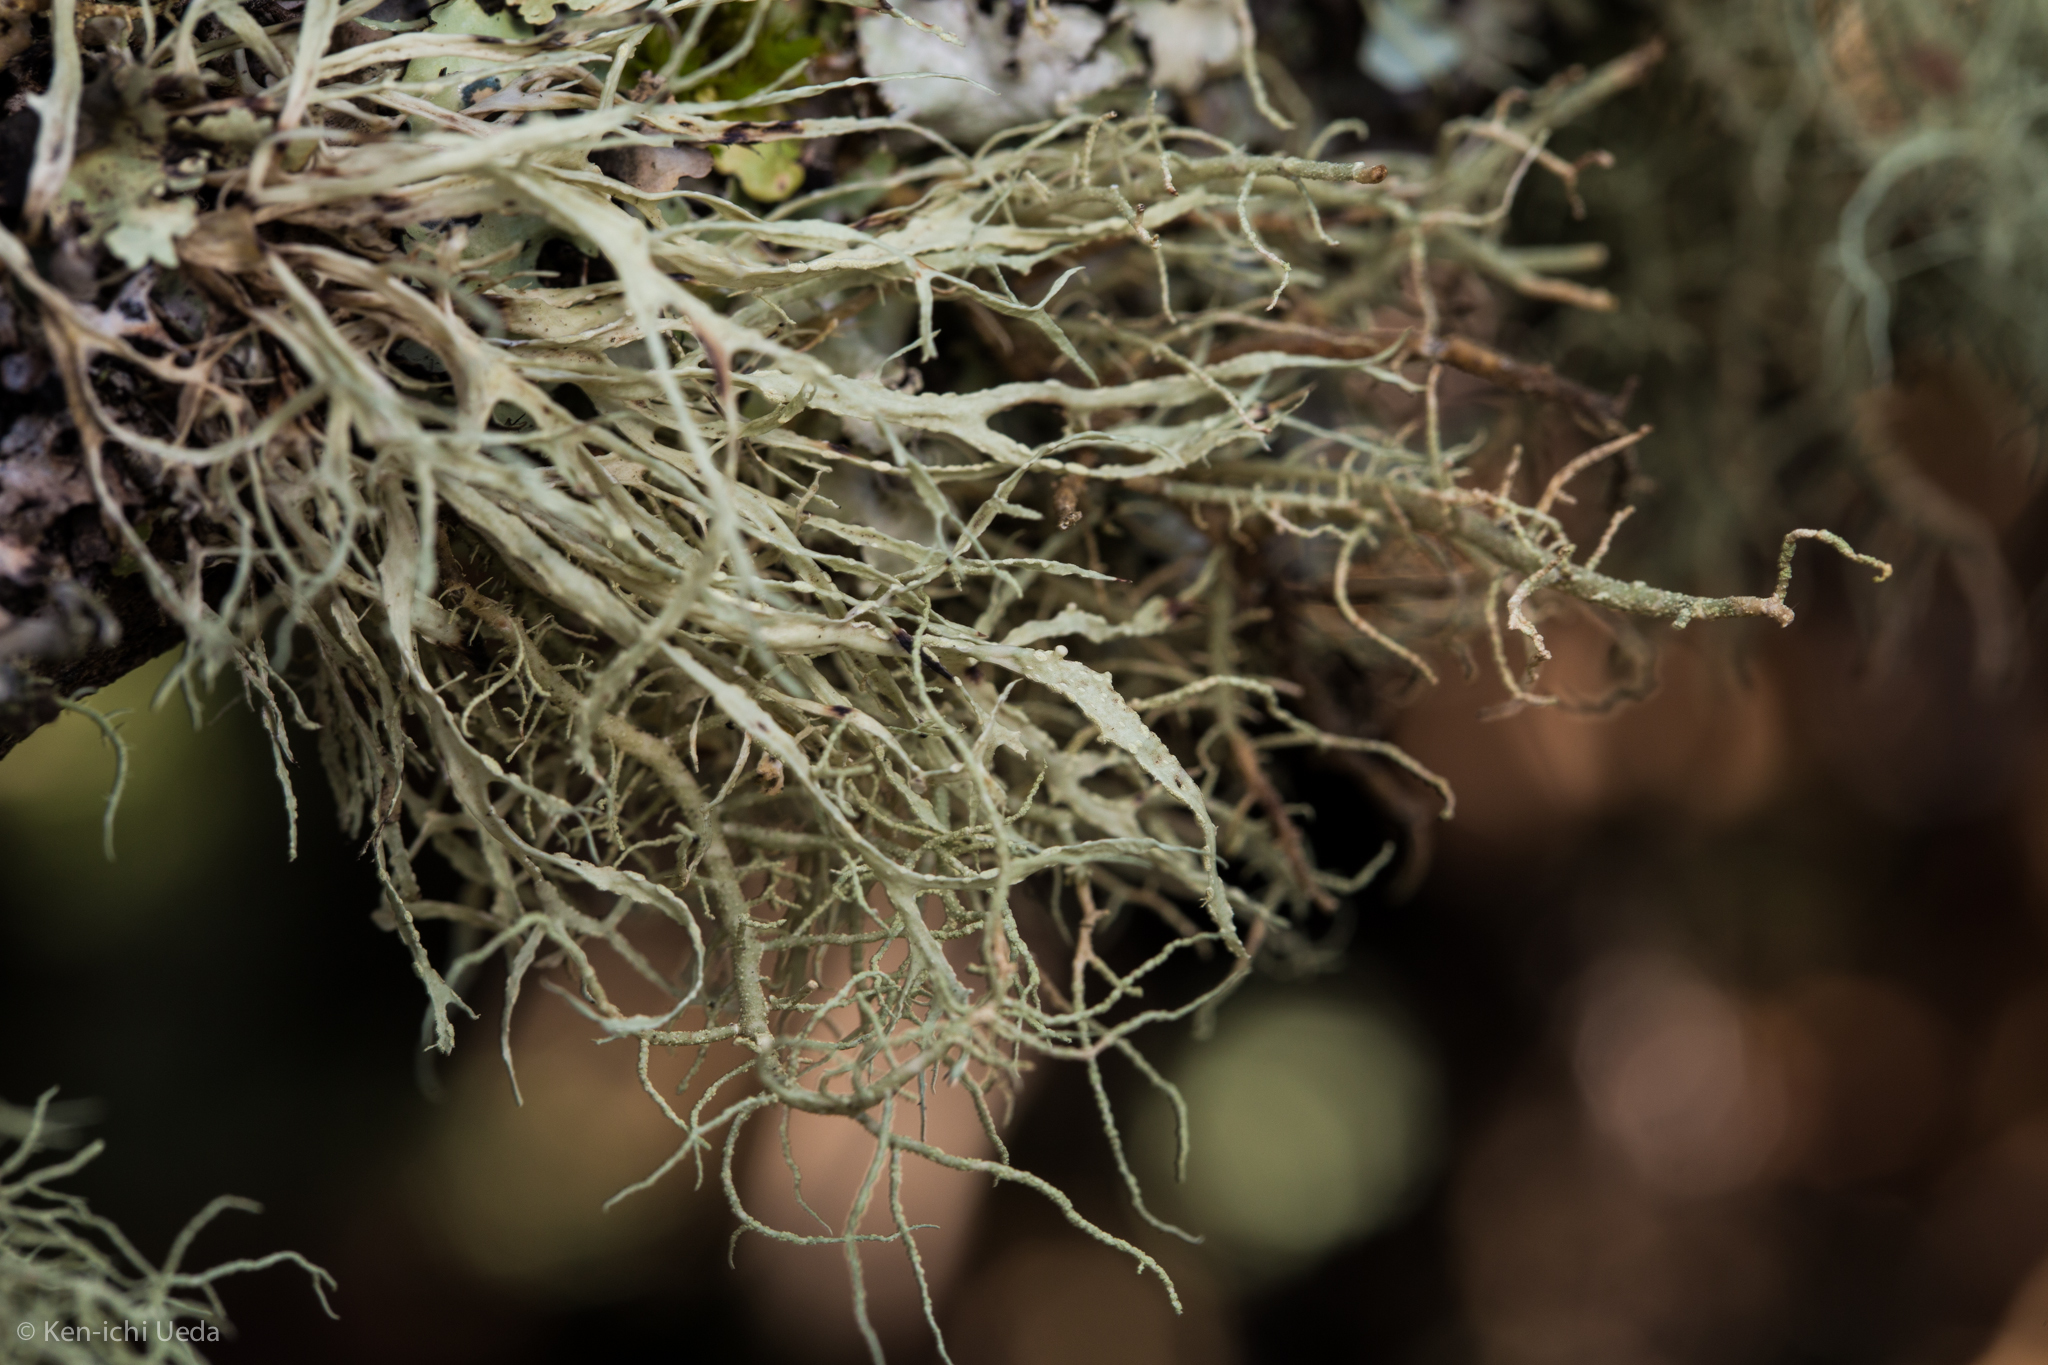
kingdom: Fungi
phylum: Ascomycota
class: Lecanoromycetes
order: Lecanorales
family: Ramalinaceae
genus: Ramalina
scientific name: Ramalina farinacea
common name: Farinose cartilage lichen
